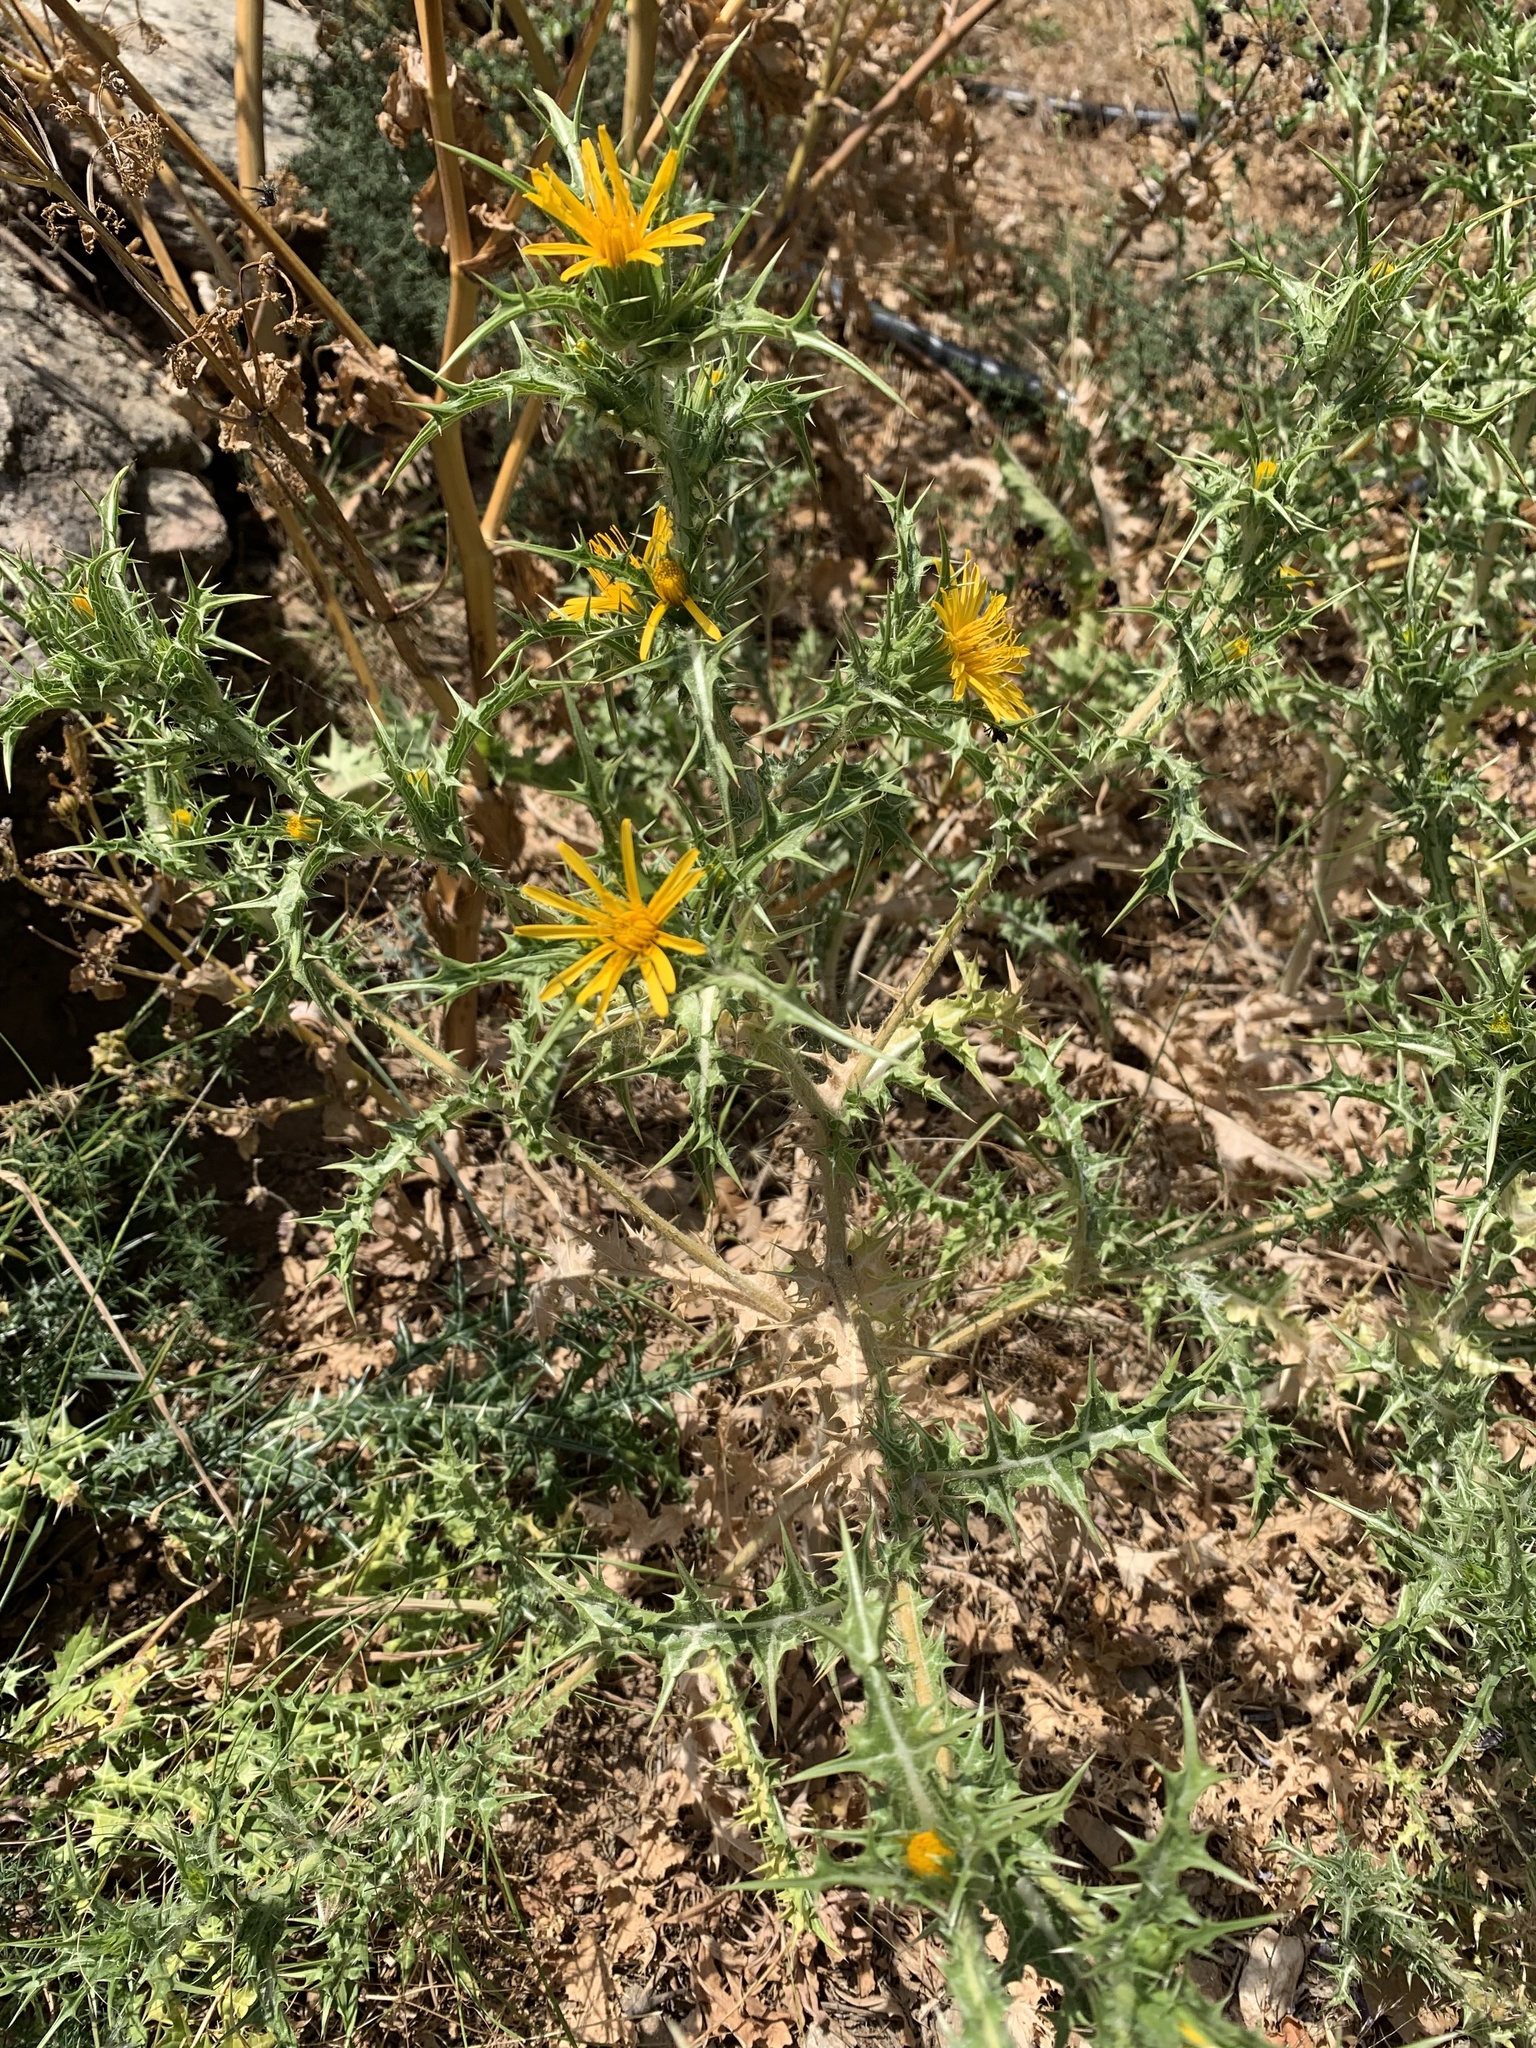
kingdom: Plantae
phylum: Tracheophyta
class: Magnoliopsida
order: Asterales
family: Asteraceae
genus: Scolymus
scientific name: Scolymus hispanicus
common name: Golden thistle
